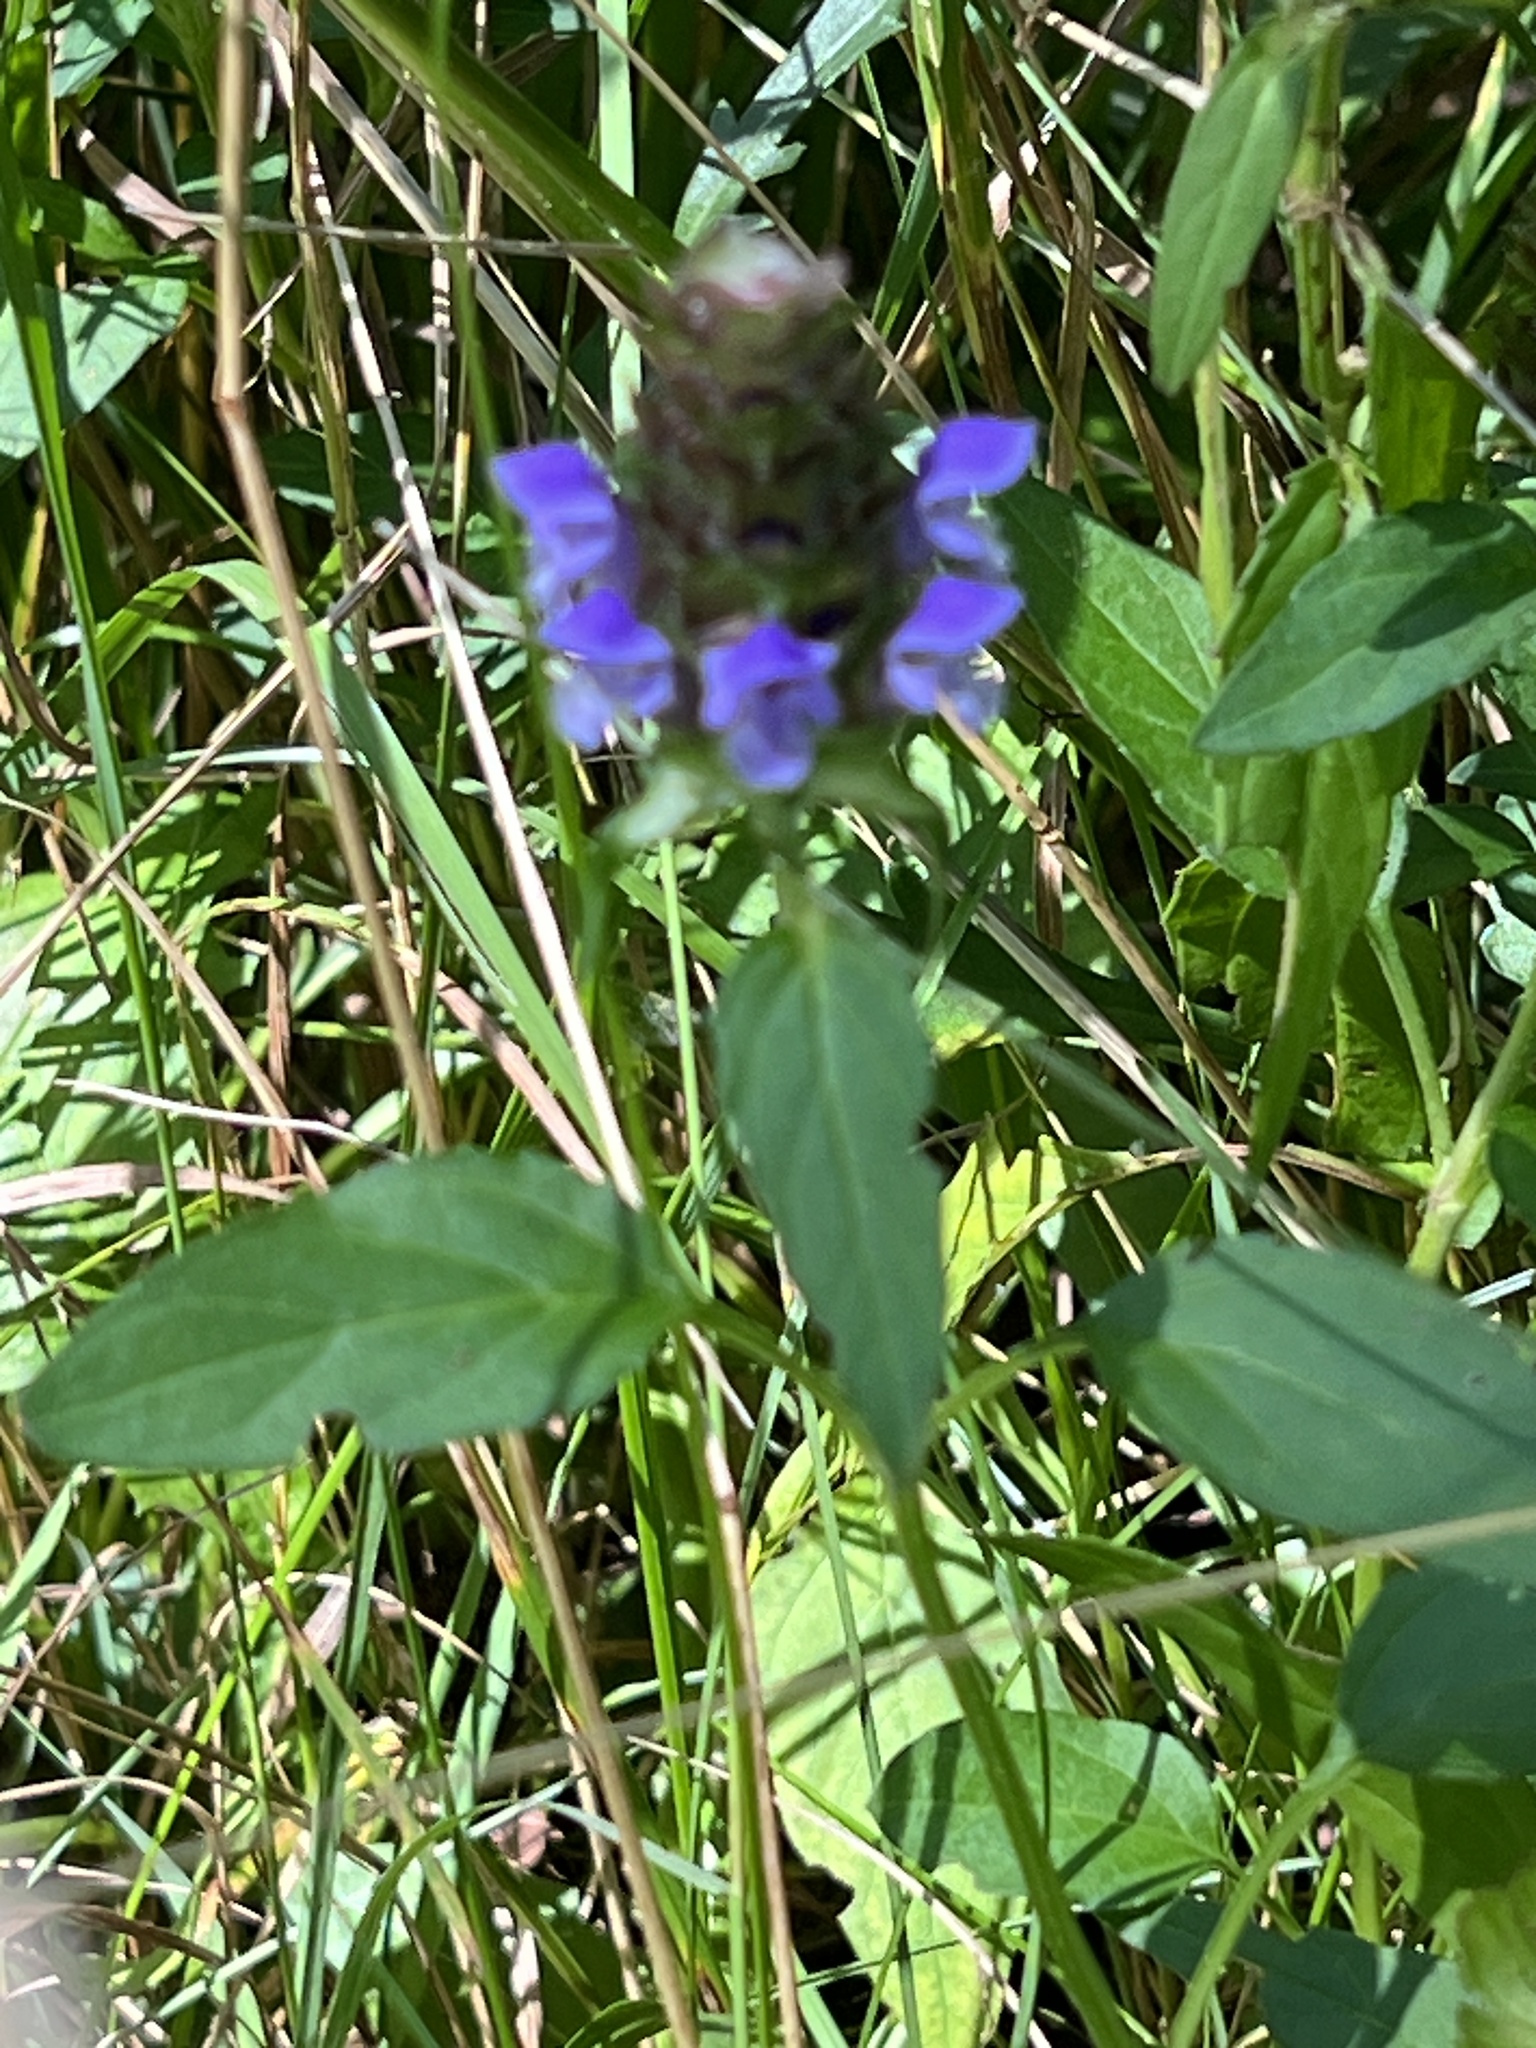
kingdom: Plantae
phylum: Tracheophyta
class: Magnoliopsida
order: Lamiales
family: Lamiaceae
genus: Prunella
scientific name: Prunella vulgaris
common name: Heal-all
